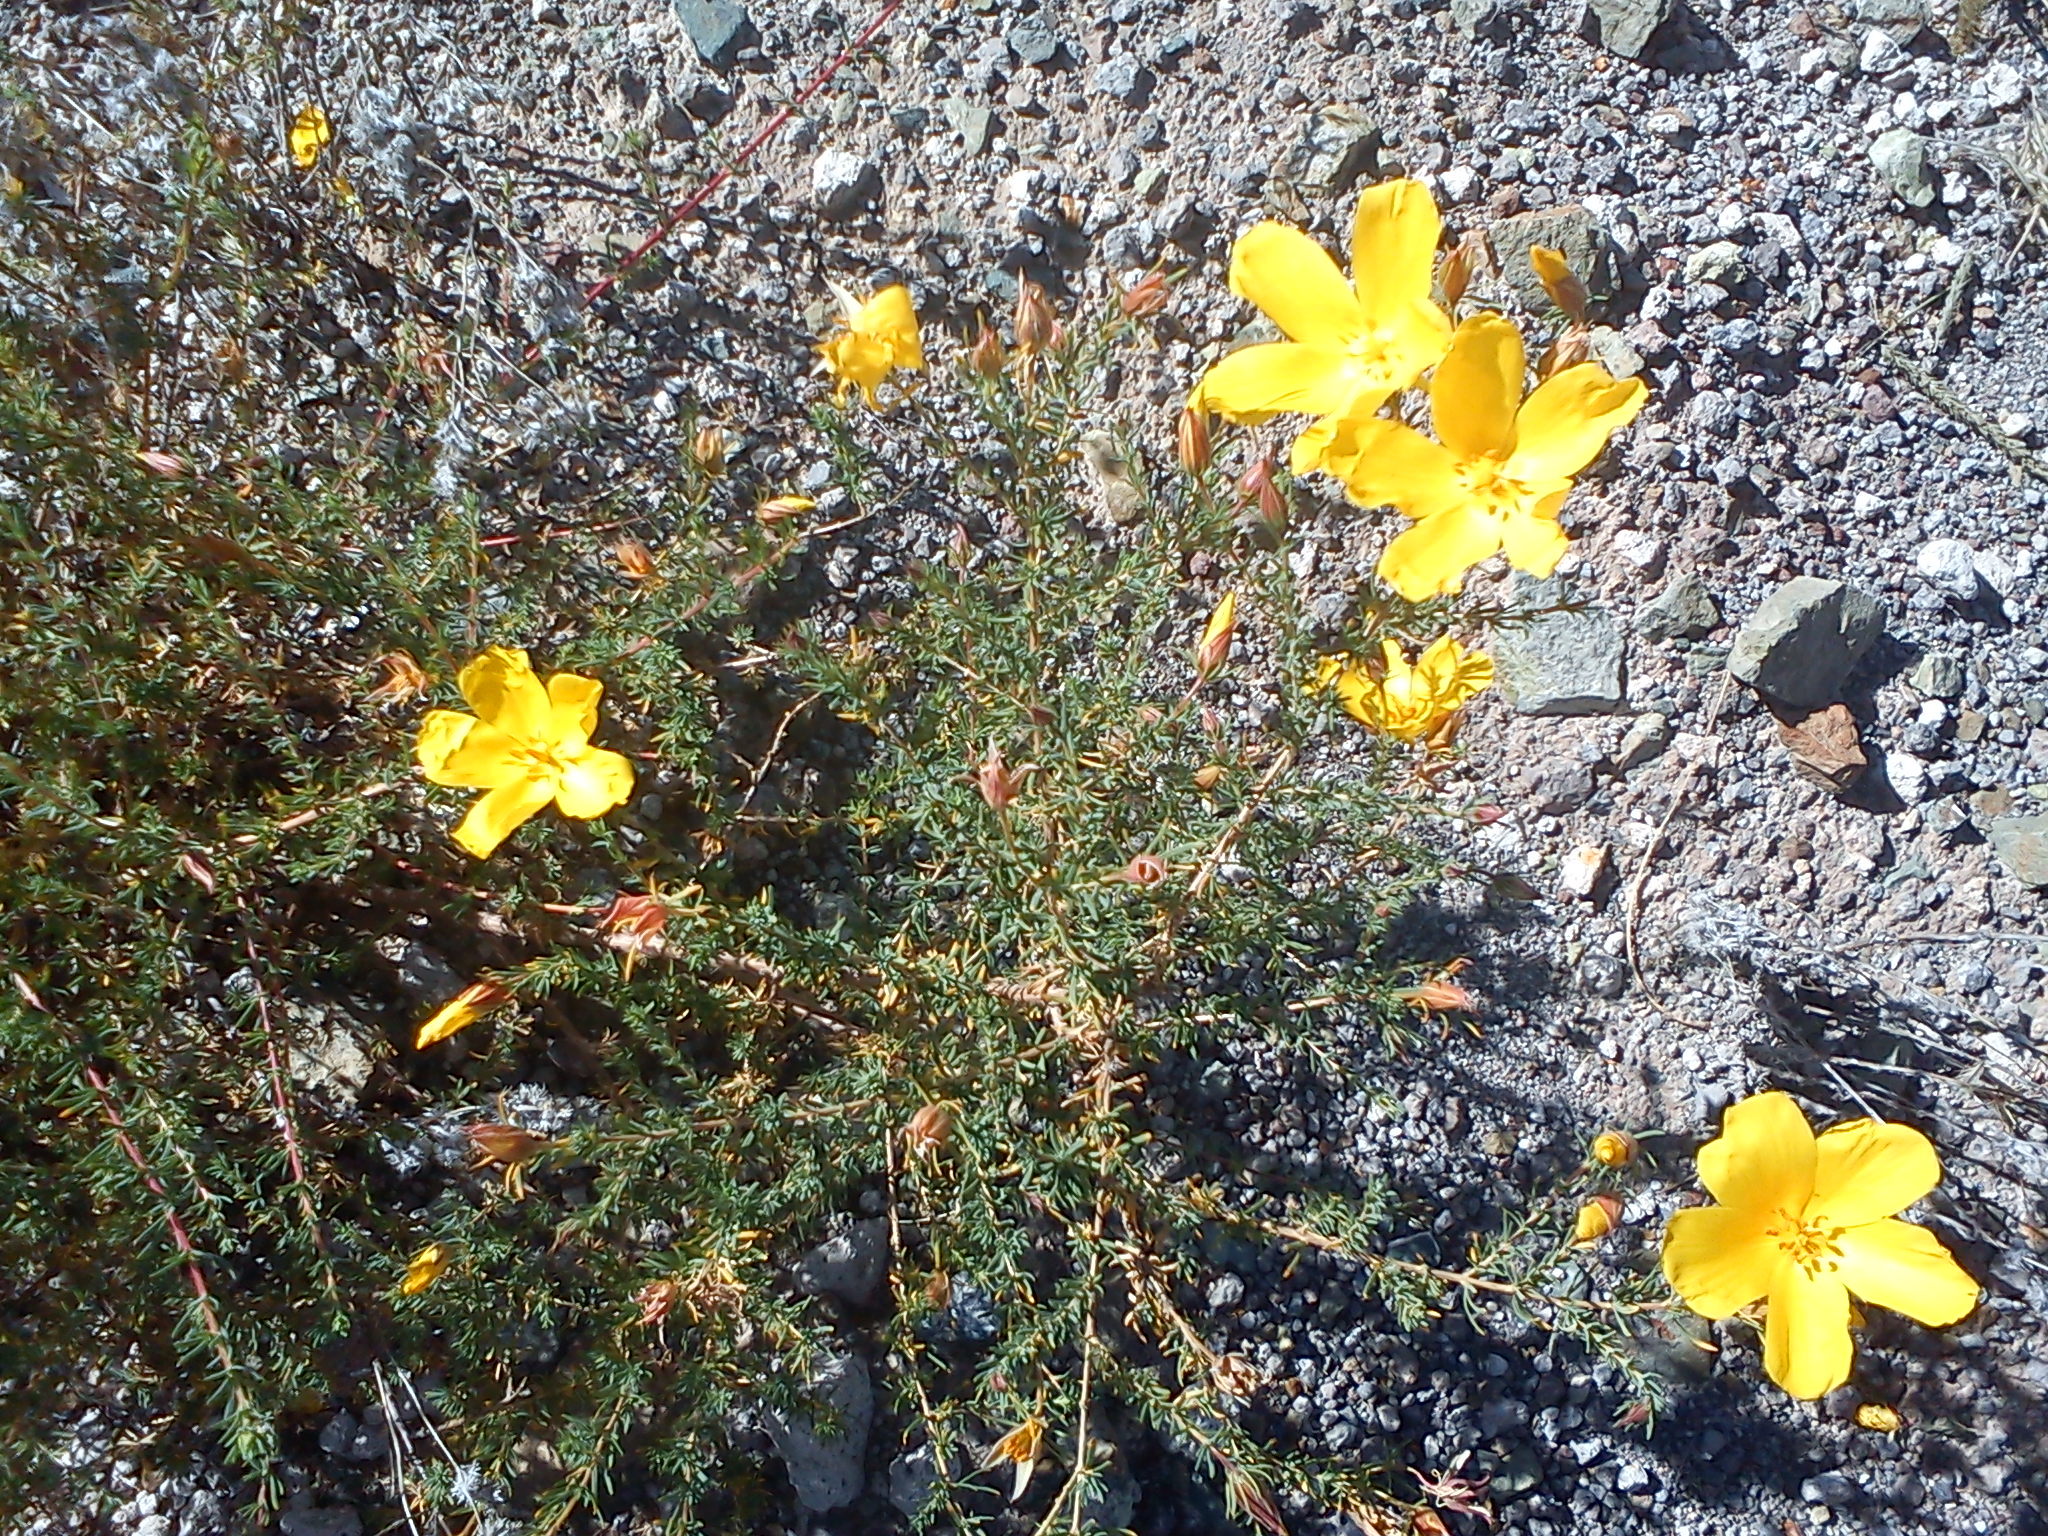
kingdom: Plantae
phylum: Tracheophyta
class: Magnoliopsida
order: Geraniales
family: Vivianiaceae
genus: Balbisia
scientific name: Balbisia meyeniana
